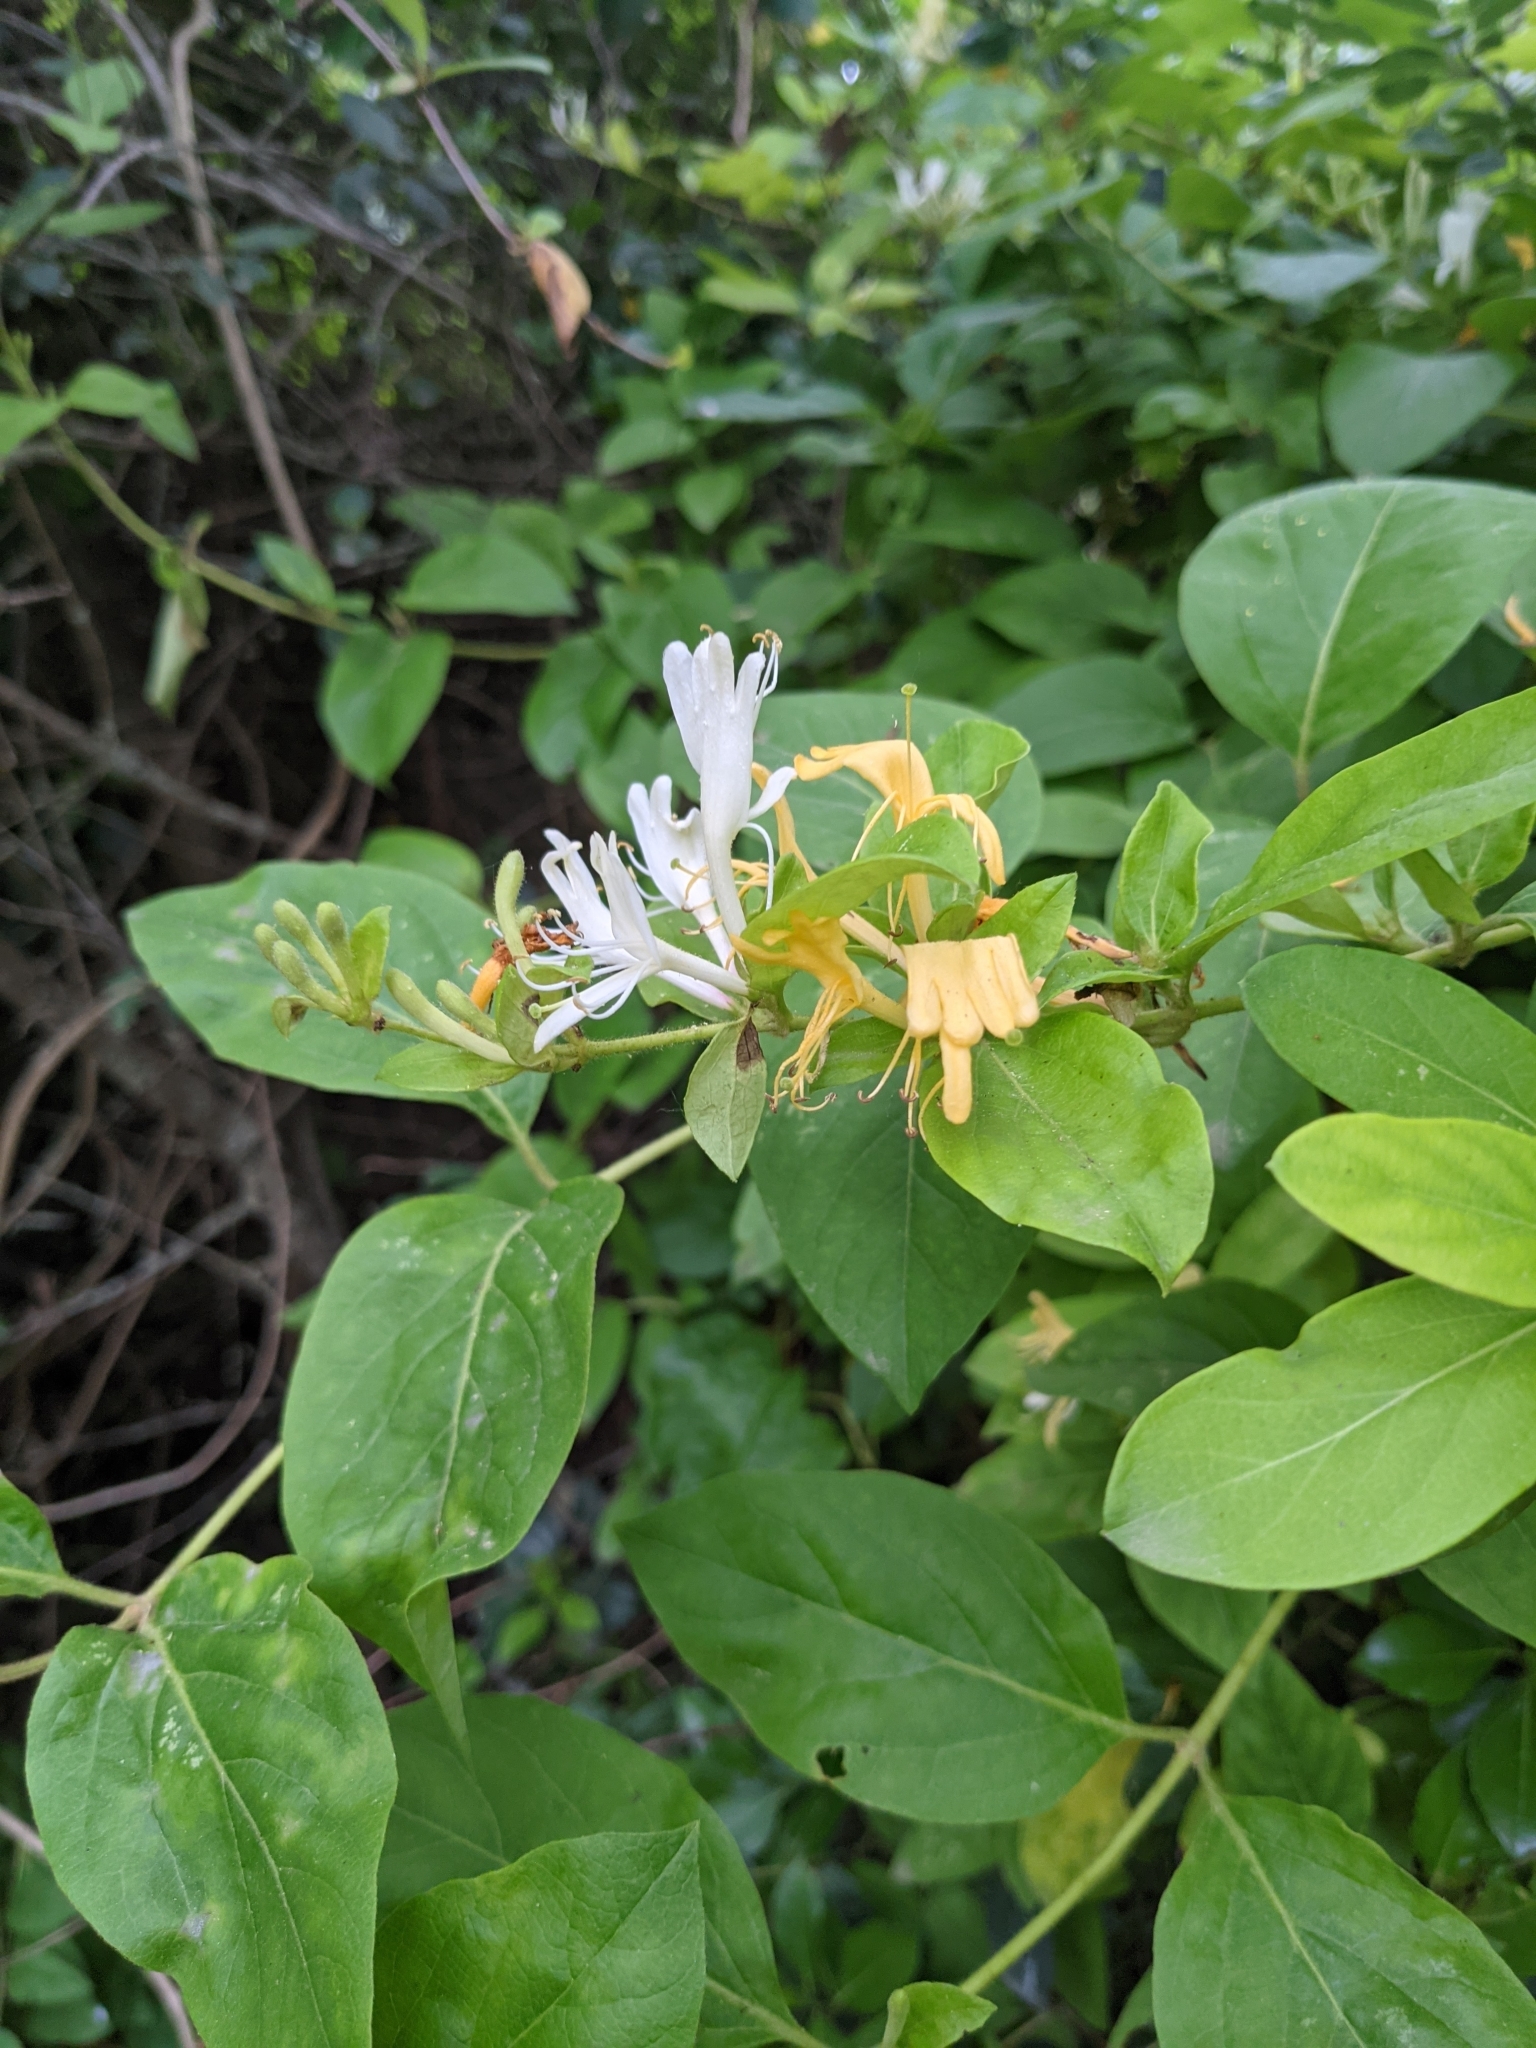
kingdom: Plantae
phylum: Tracheophyta
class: Magnoliopsida
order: Dipsacales
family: Caprifoliaceae
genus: Lonicera
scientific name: Lonicera japonica
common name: Japanese honeysuckle
